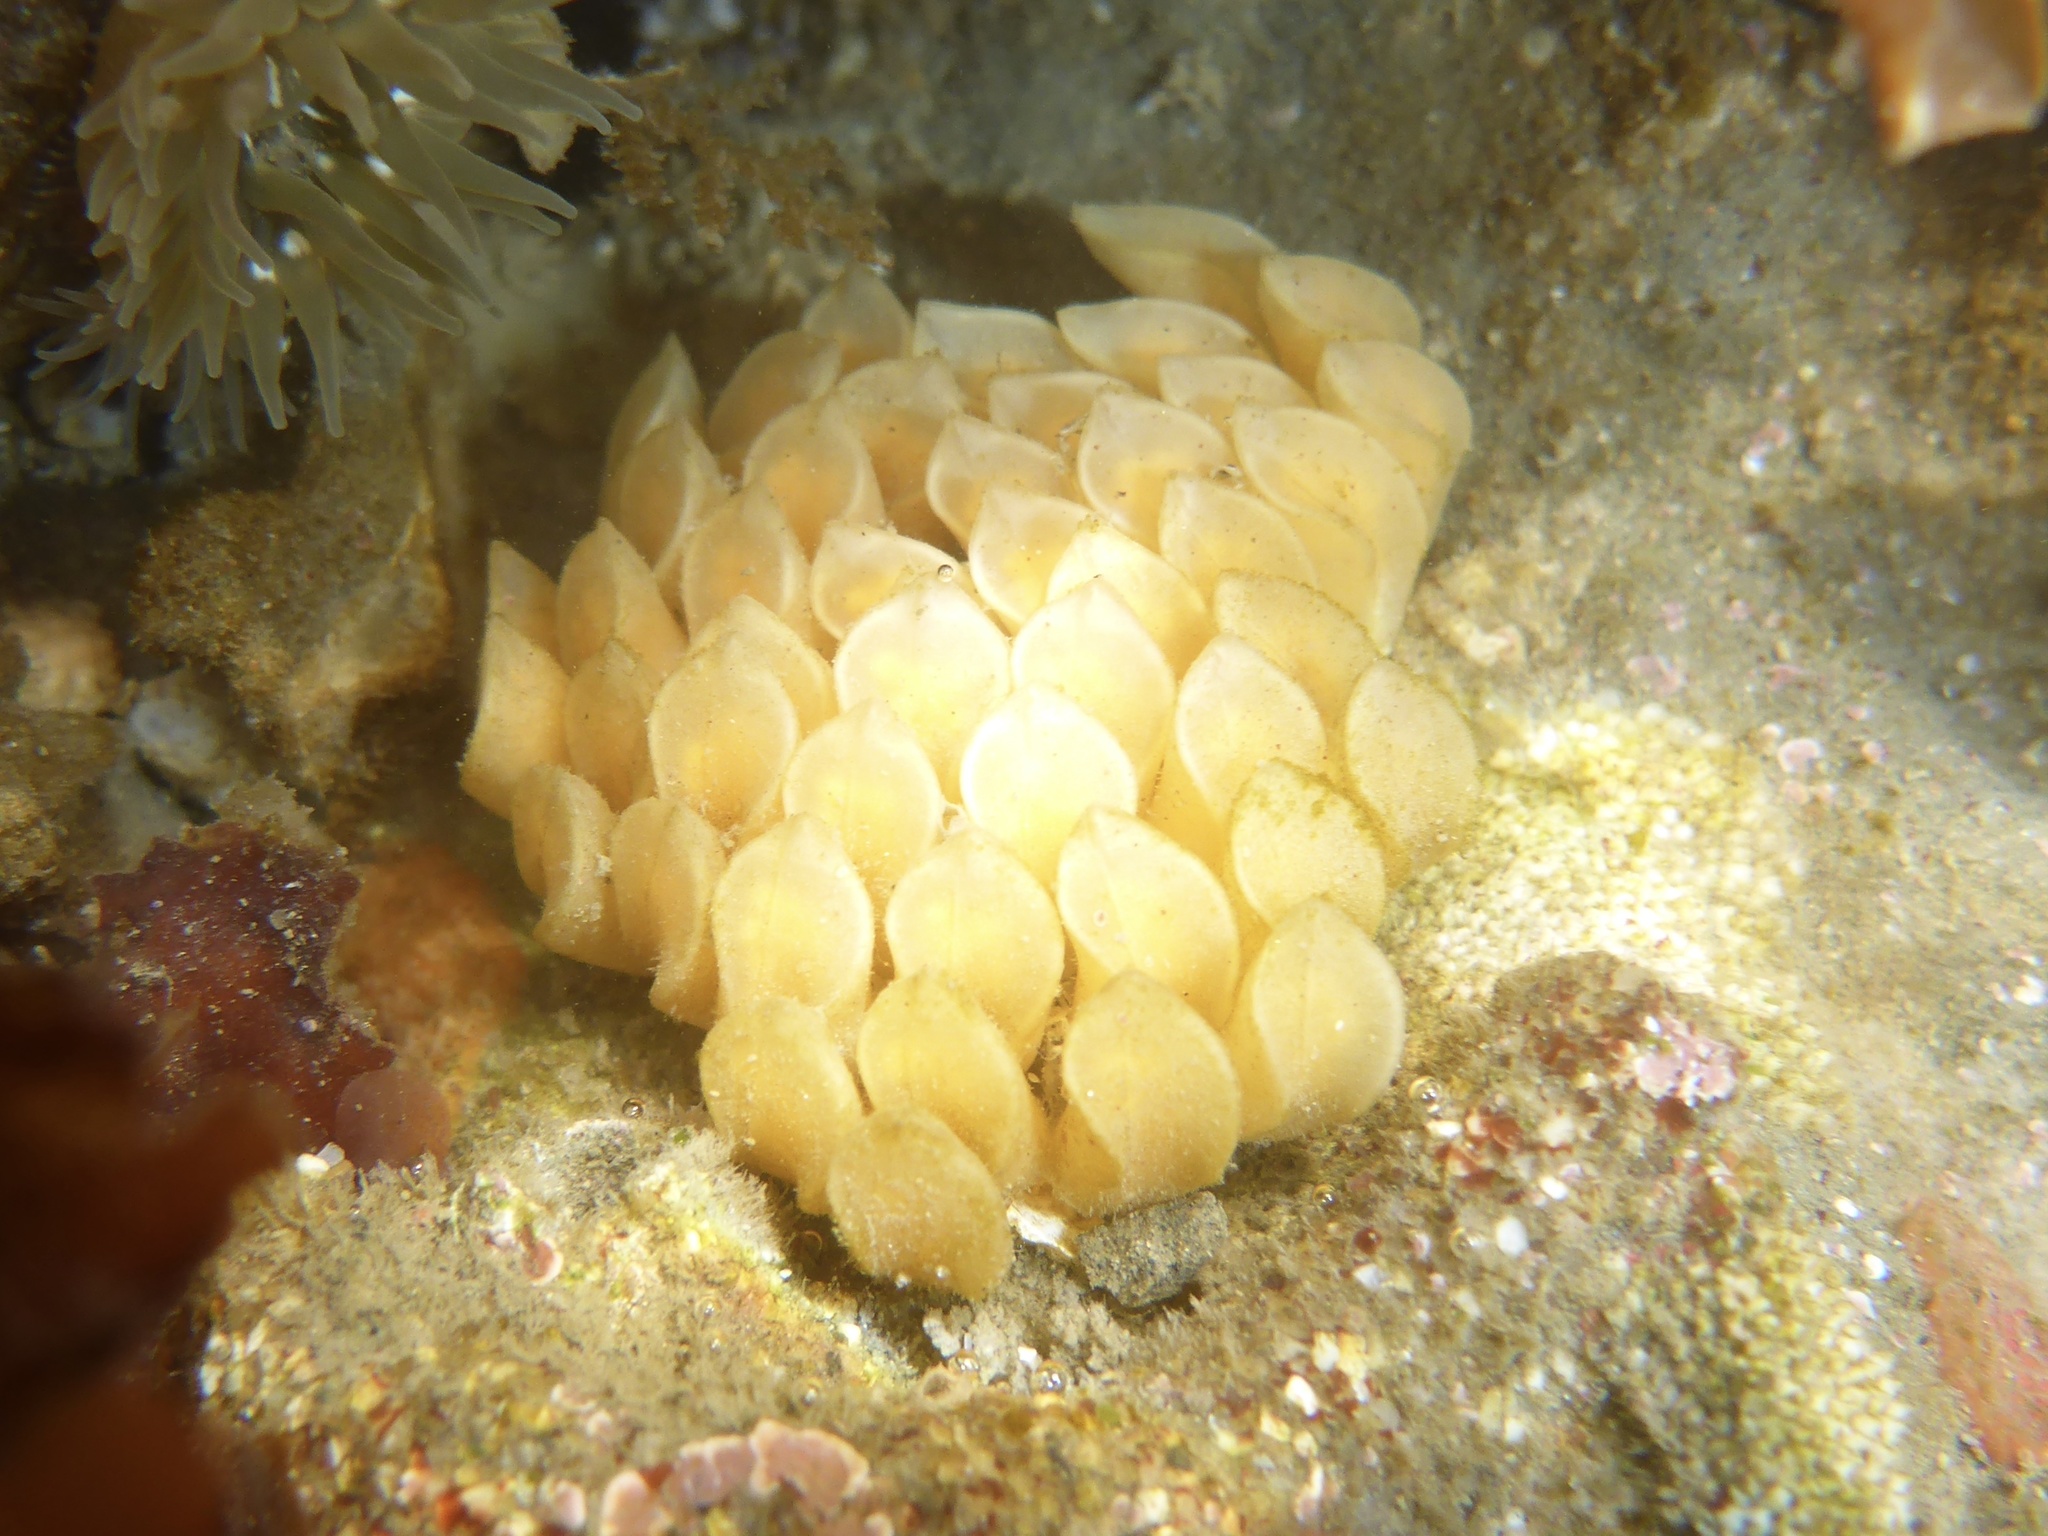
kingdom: Animalia
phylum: Mollusca
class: Gastropoda
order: Neogastropoda
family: Muricidae
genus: Ceratostoma
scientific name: Ceratostoma foliatum
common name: Foliate thorn purpura
